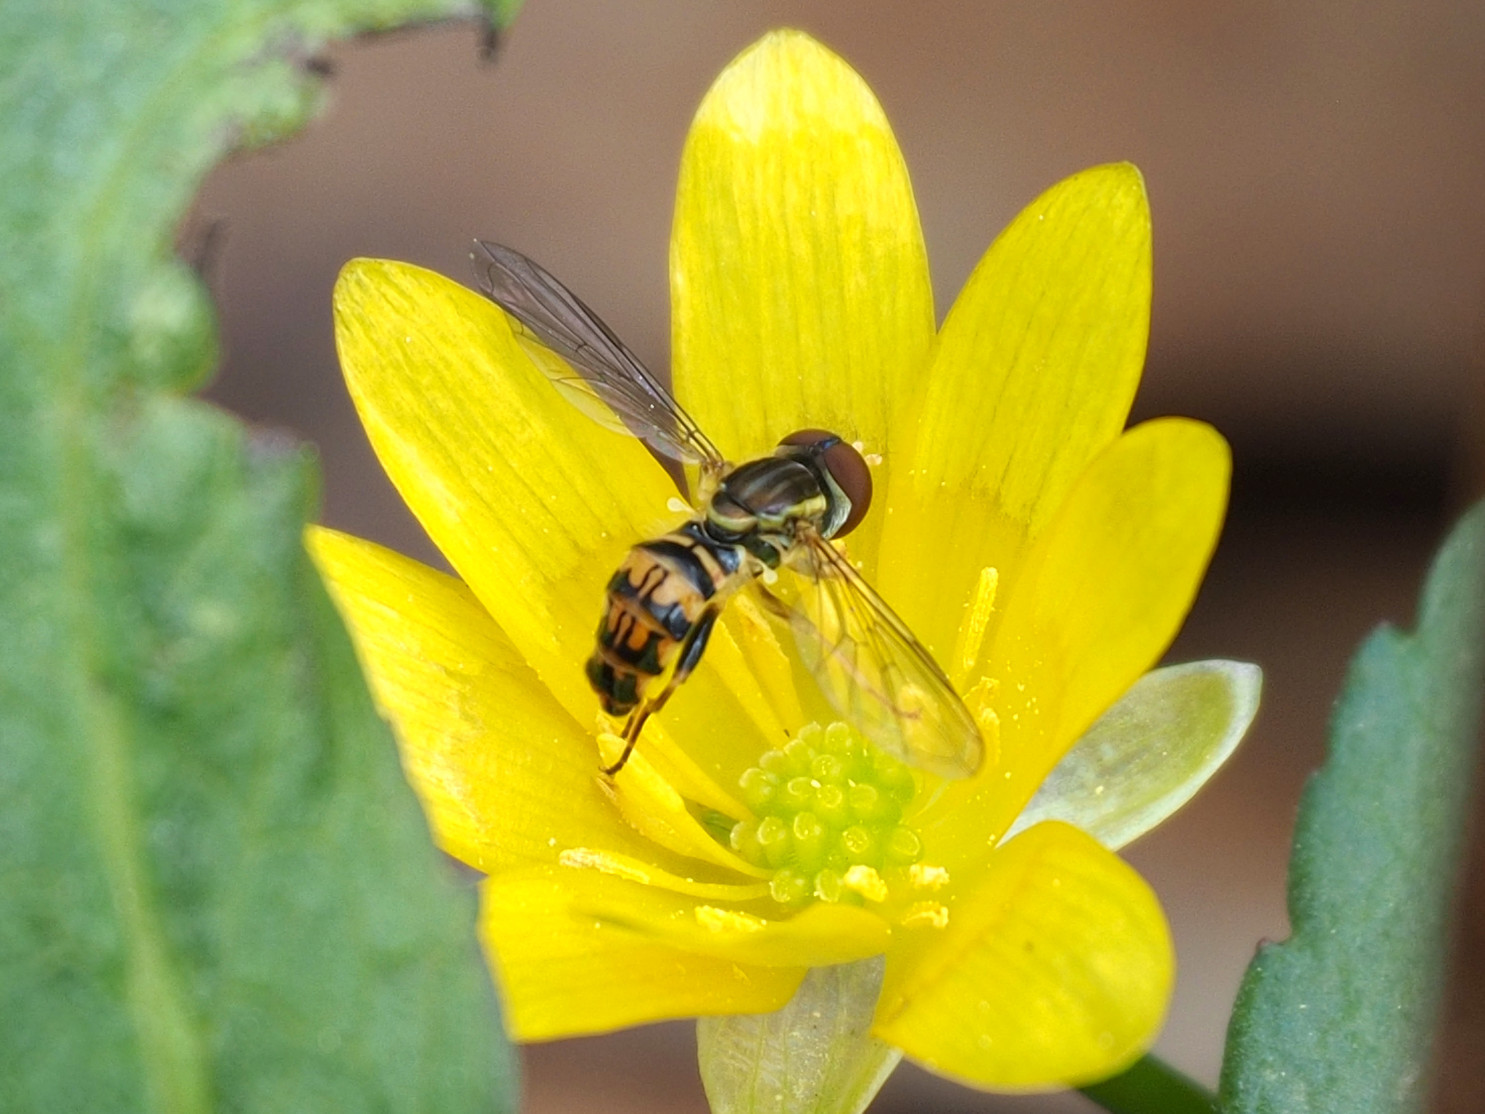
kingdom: Animalia
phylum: Arthropoda
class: Insecta
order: Diptera
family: Syrphidae
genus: Toxomerus
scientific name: Toxomerus geminatus
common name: Eastern calligrapher
